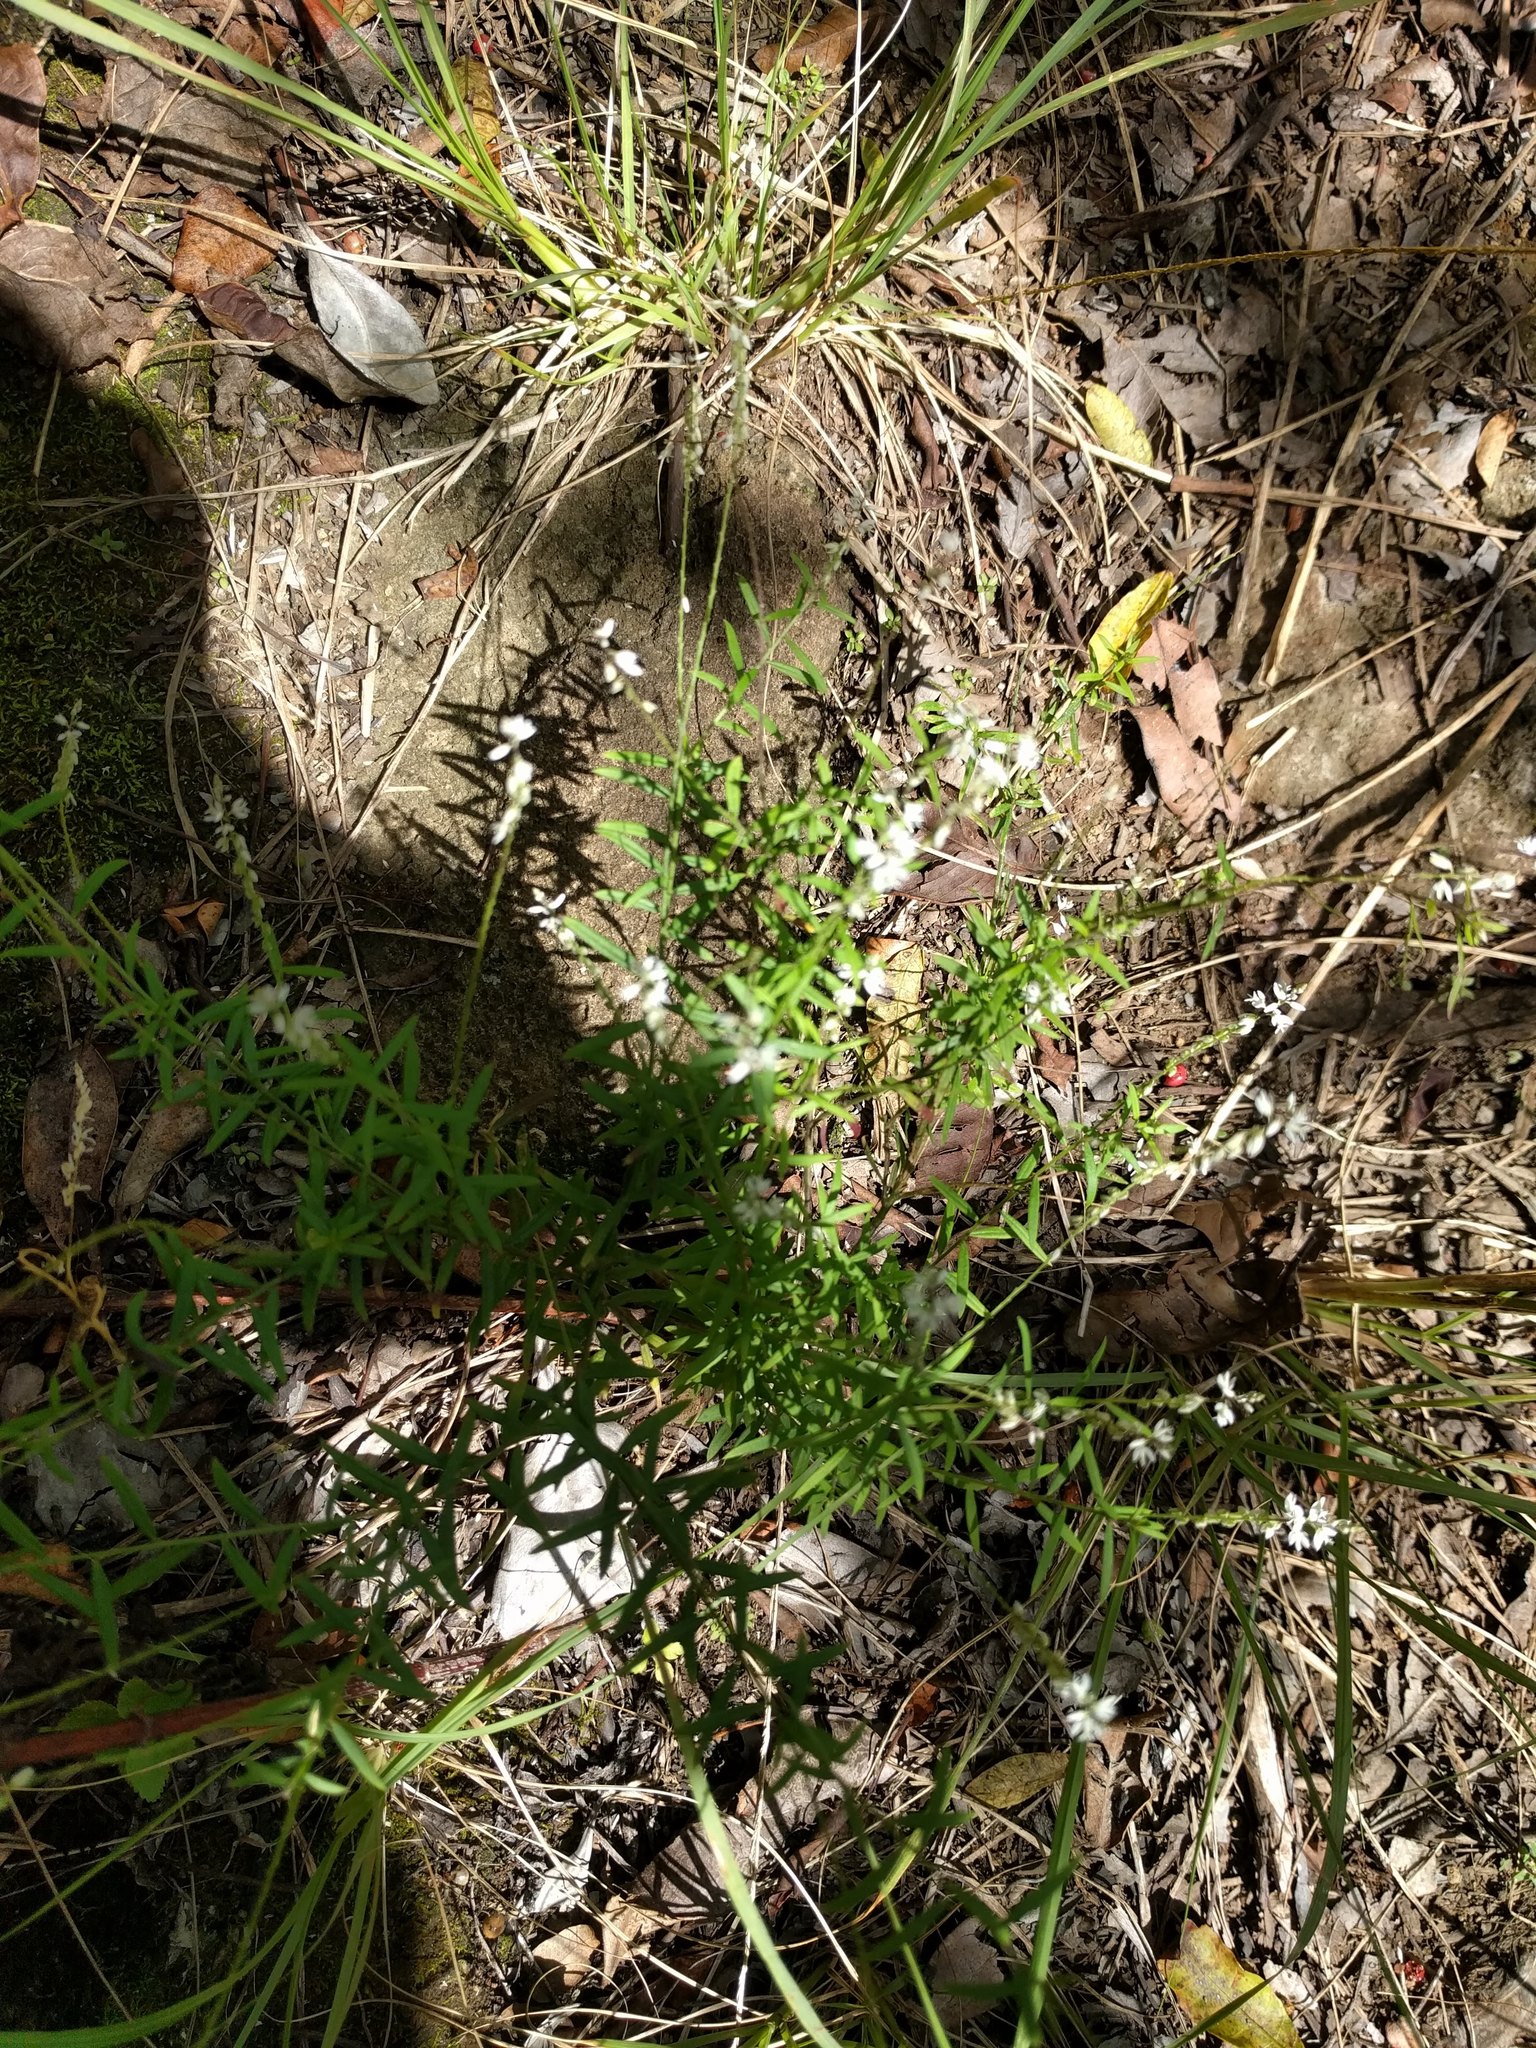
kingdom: Plantae
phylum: Tracheophyta
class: Magnoliopsida
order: Fabales
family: Polygalaceae
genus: Polygala
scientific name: Polygala paniculata
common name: Orosne
